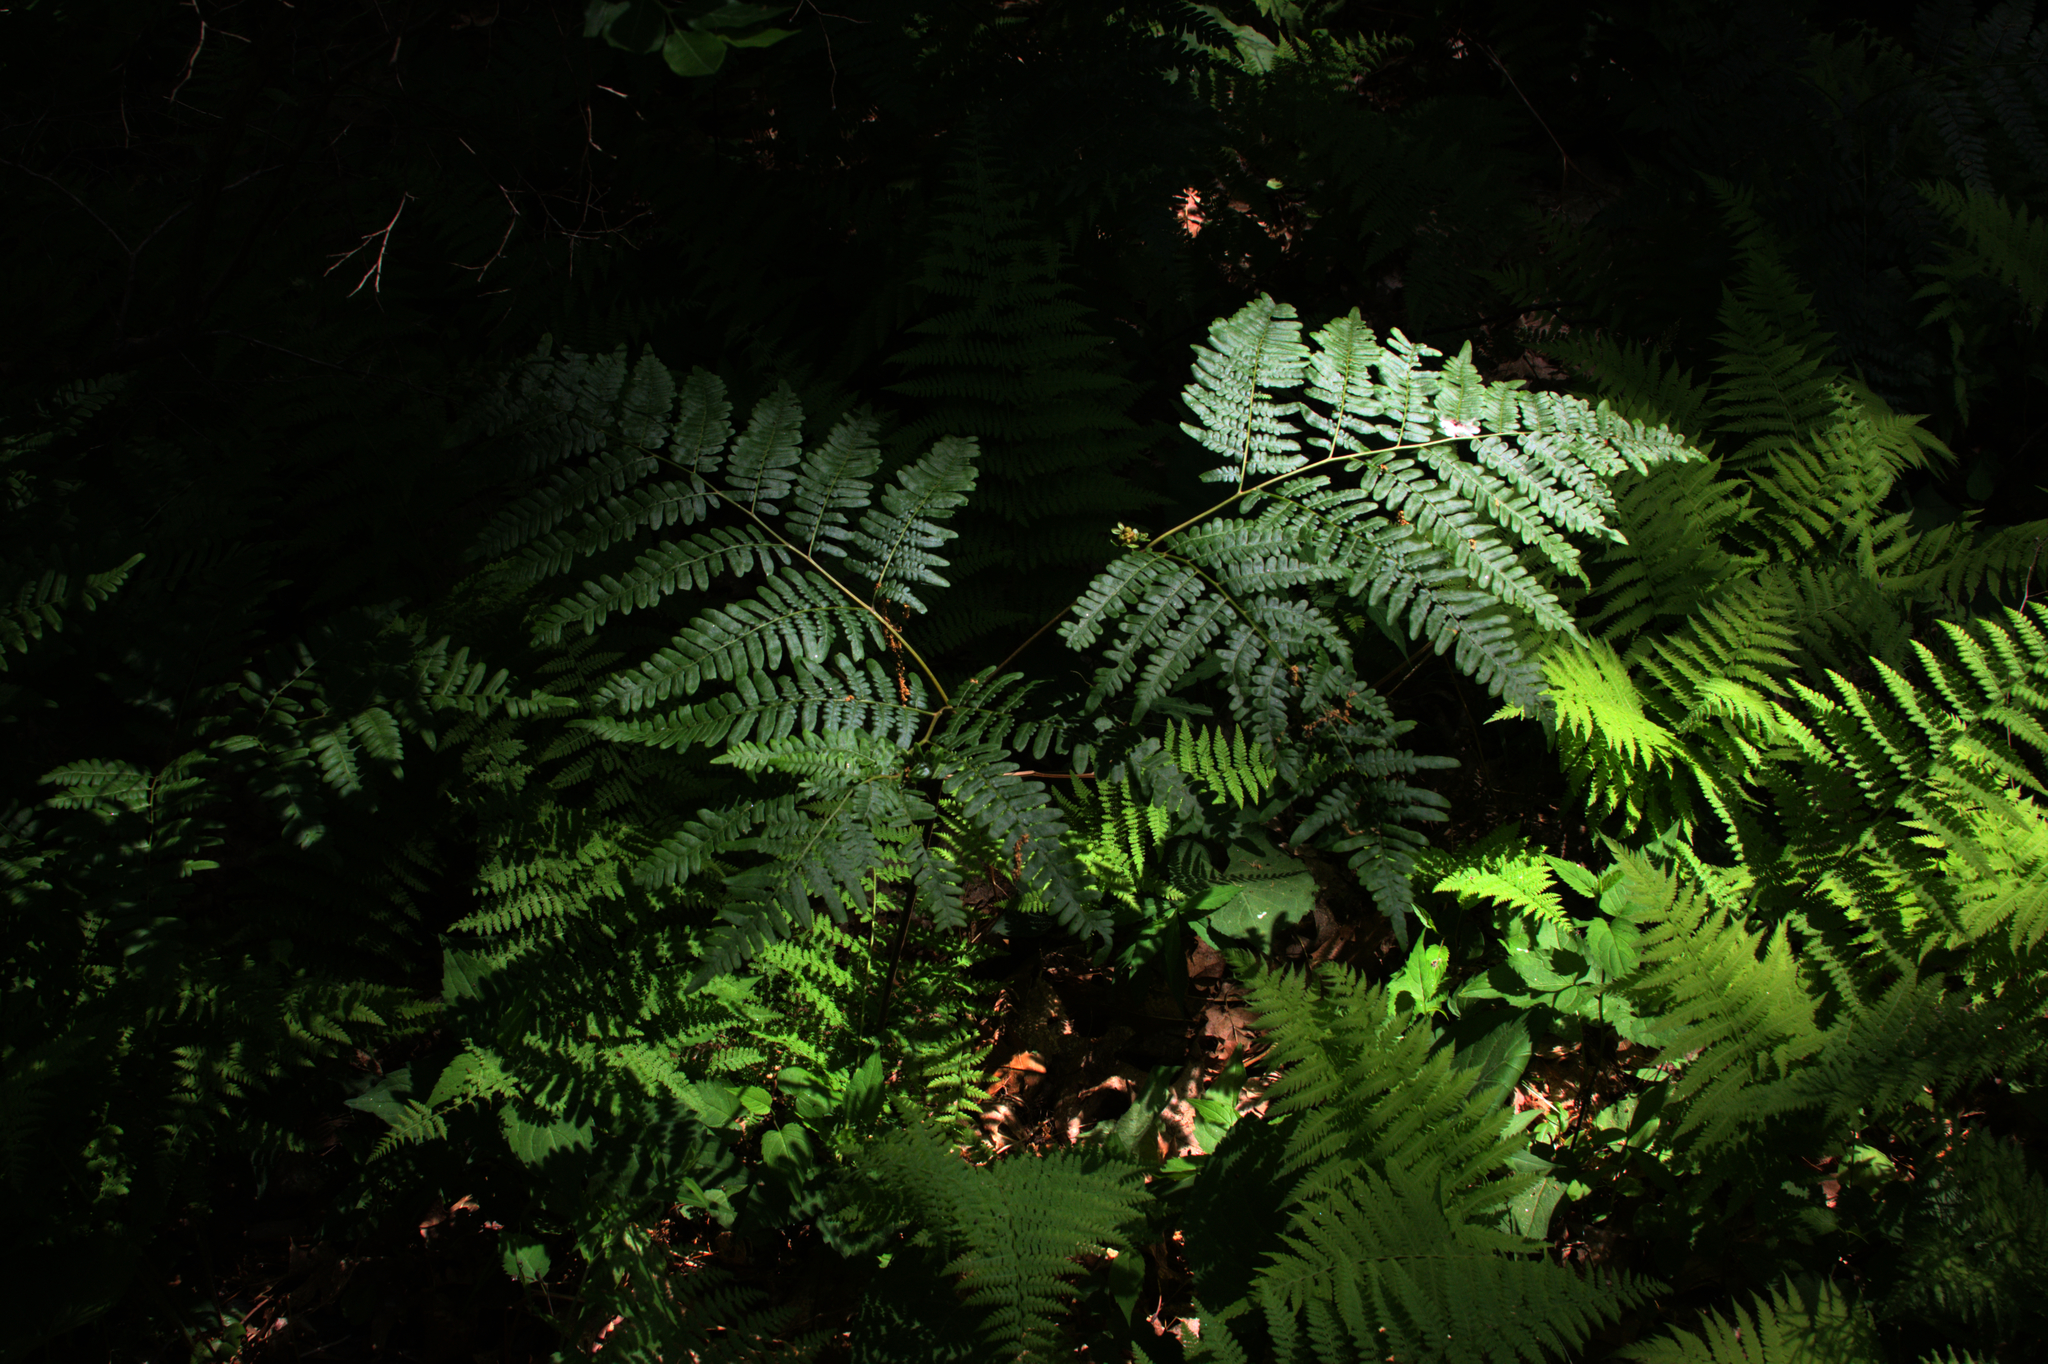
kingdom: Plantae
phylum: Tracheophyta
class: Polypodiopsida
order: Polypodiales
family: Dennstaedtiaceae
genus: Pteridium
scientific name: Pteridium aquilinum
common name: Bracken
